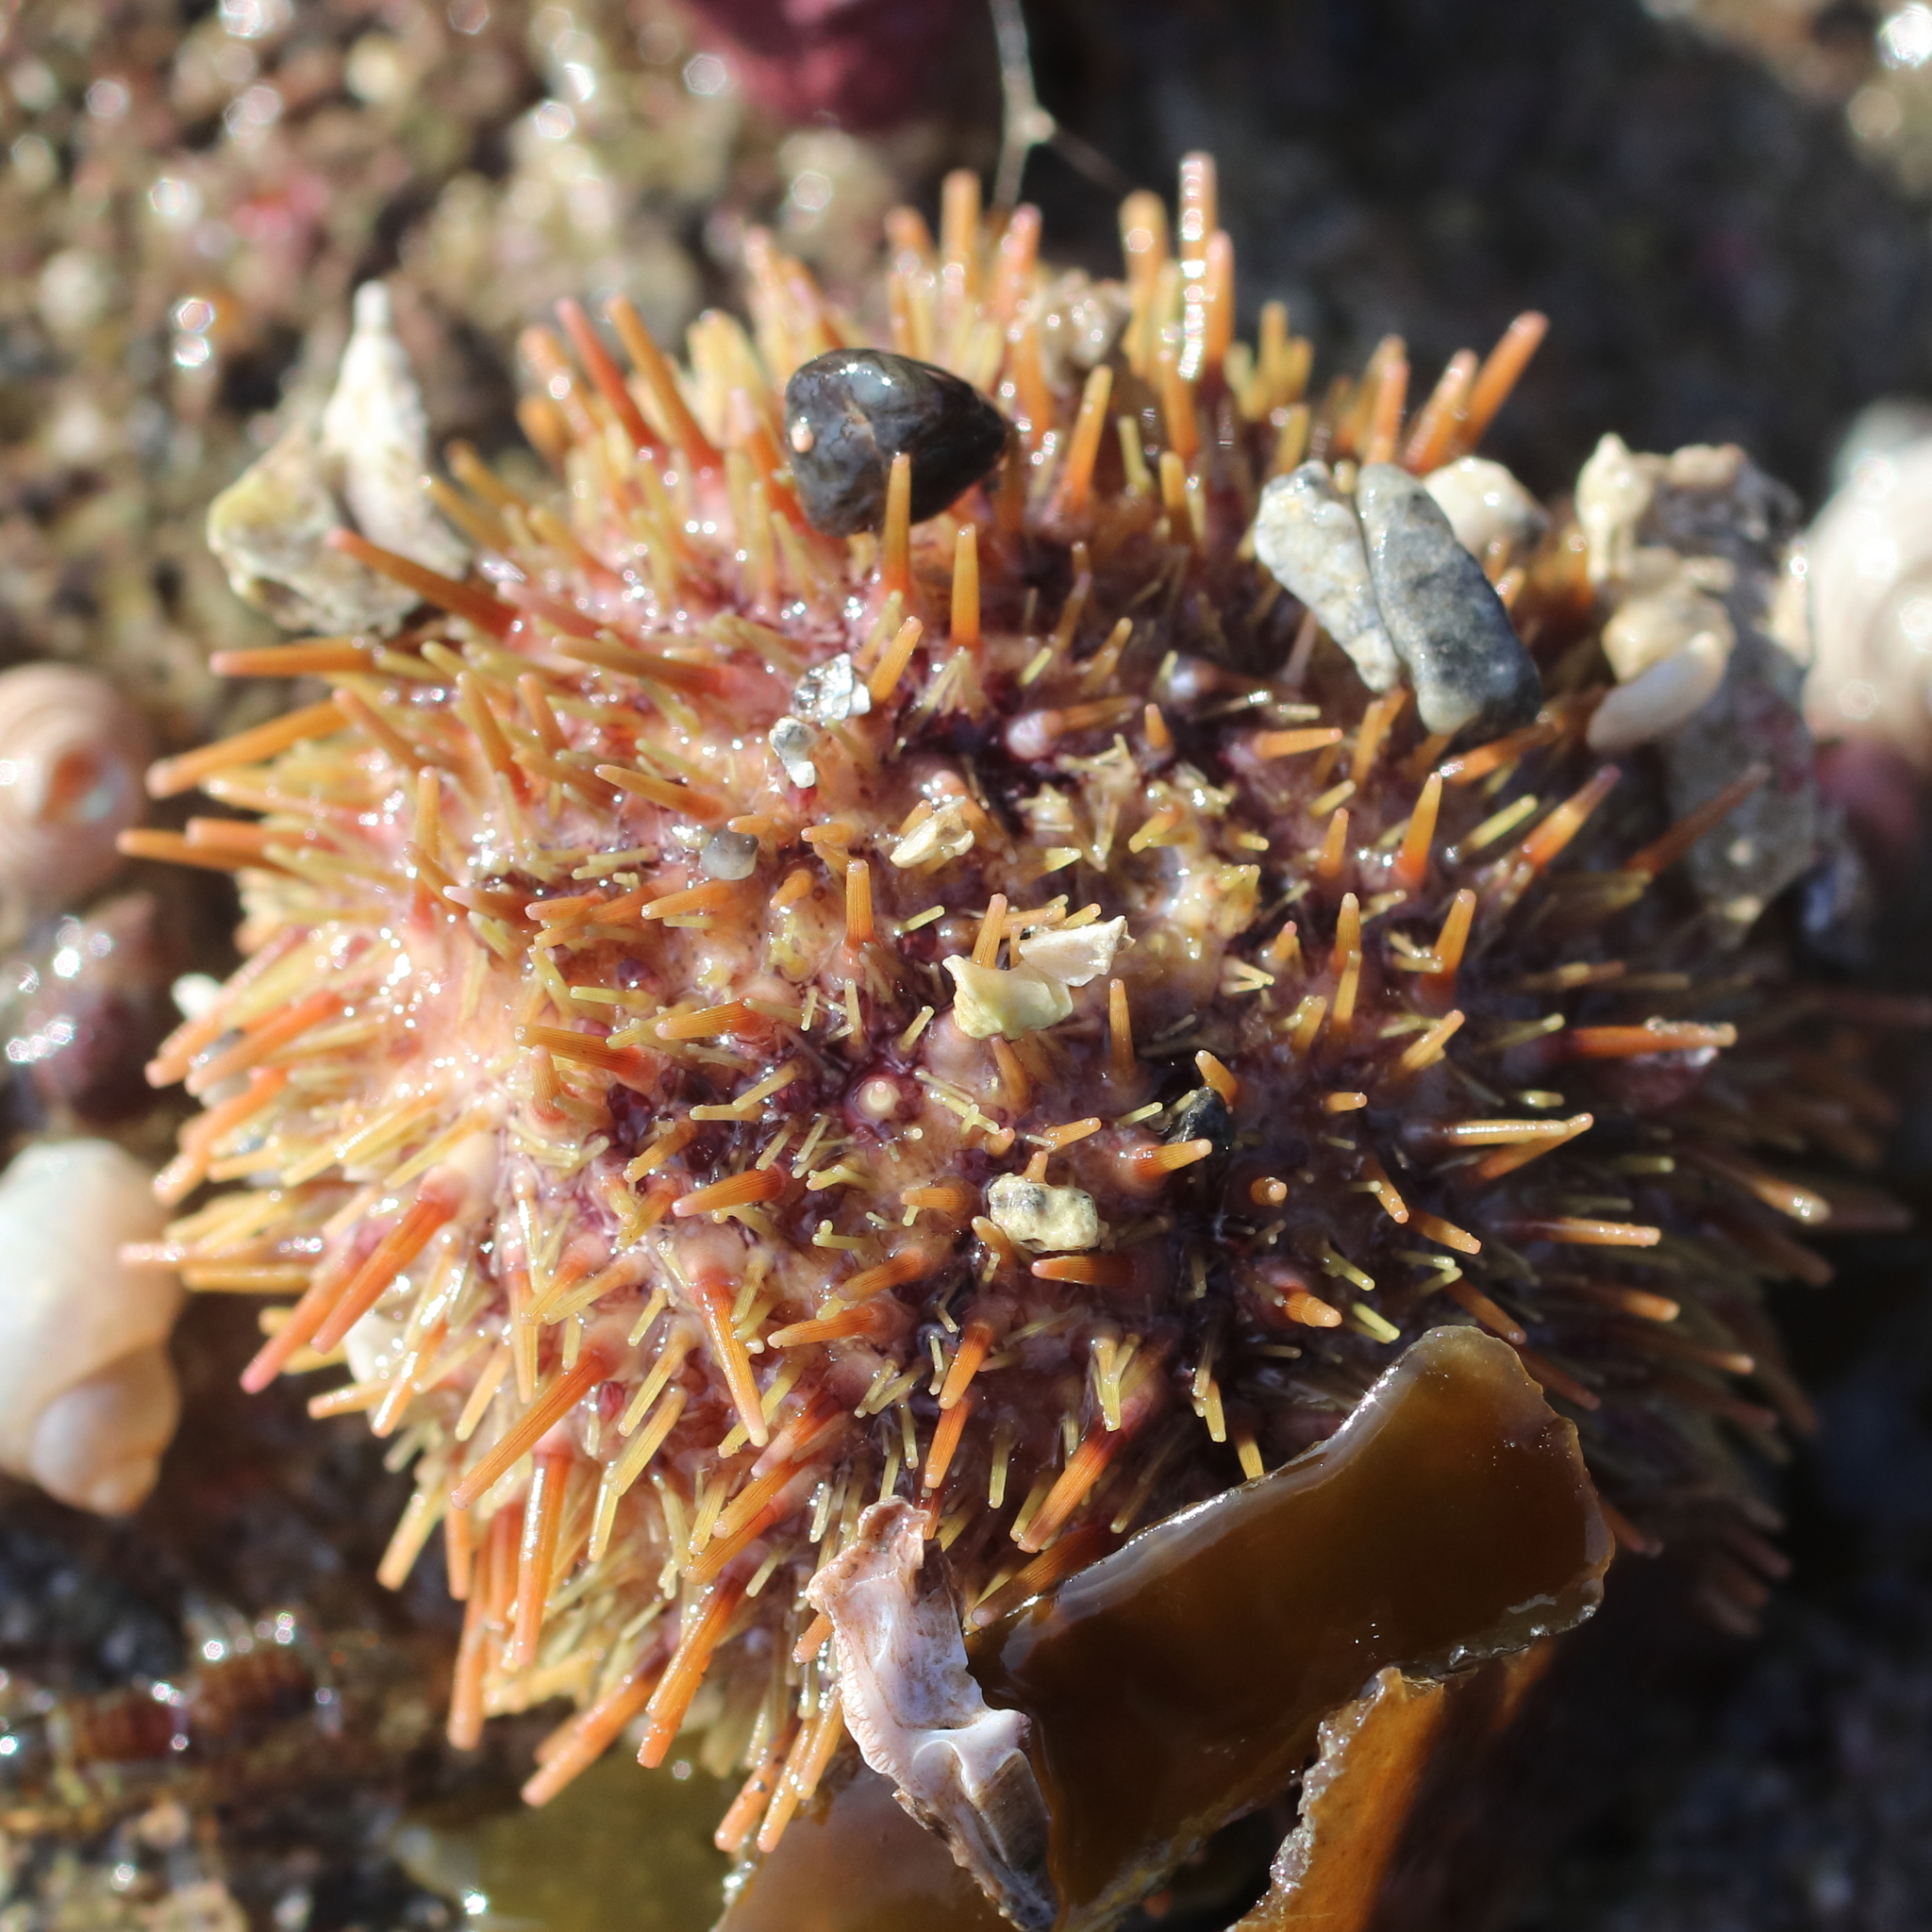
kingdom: Animalia
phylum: Echinodermata
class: Echinoidea
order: Camarodonta
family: Strongylocentrotidae
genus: Strongylocentrotus
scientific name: Strongylocentrotus droebachiensis
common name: Northern sea urchin
